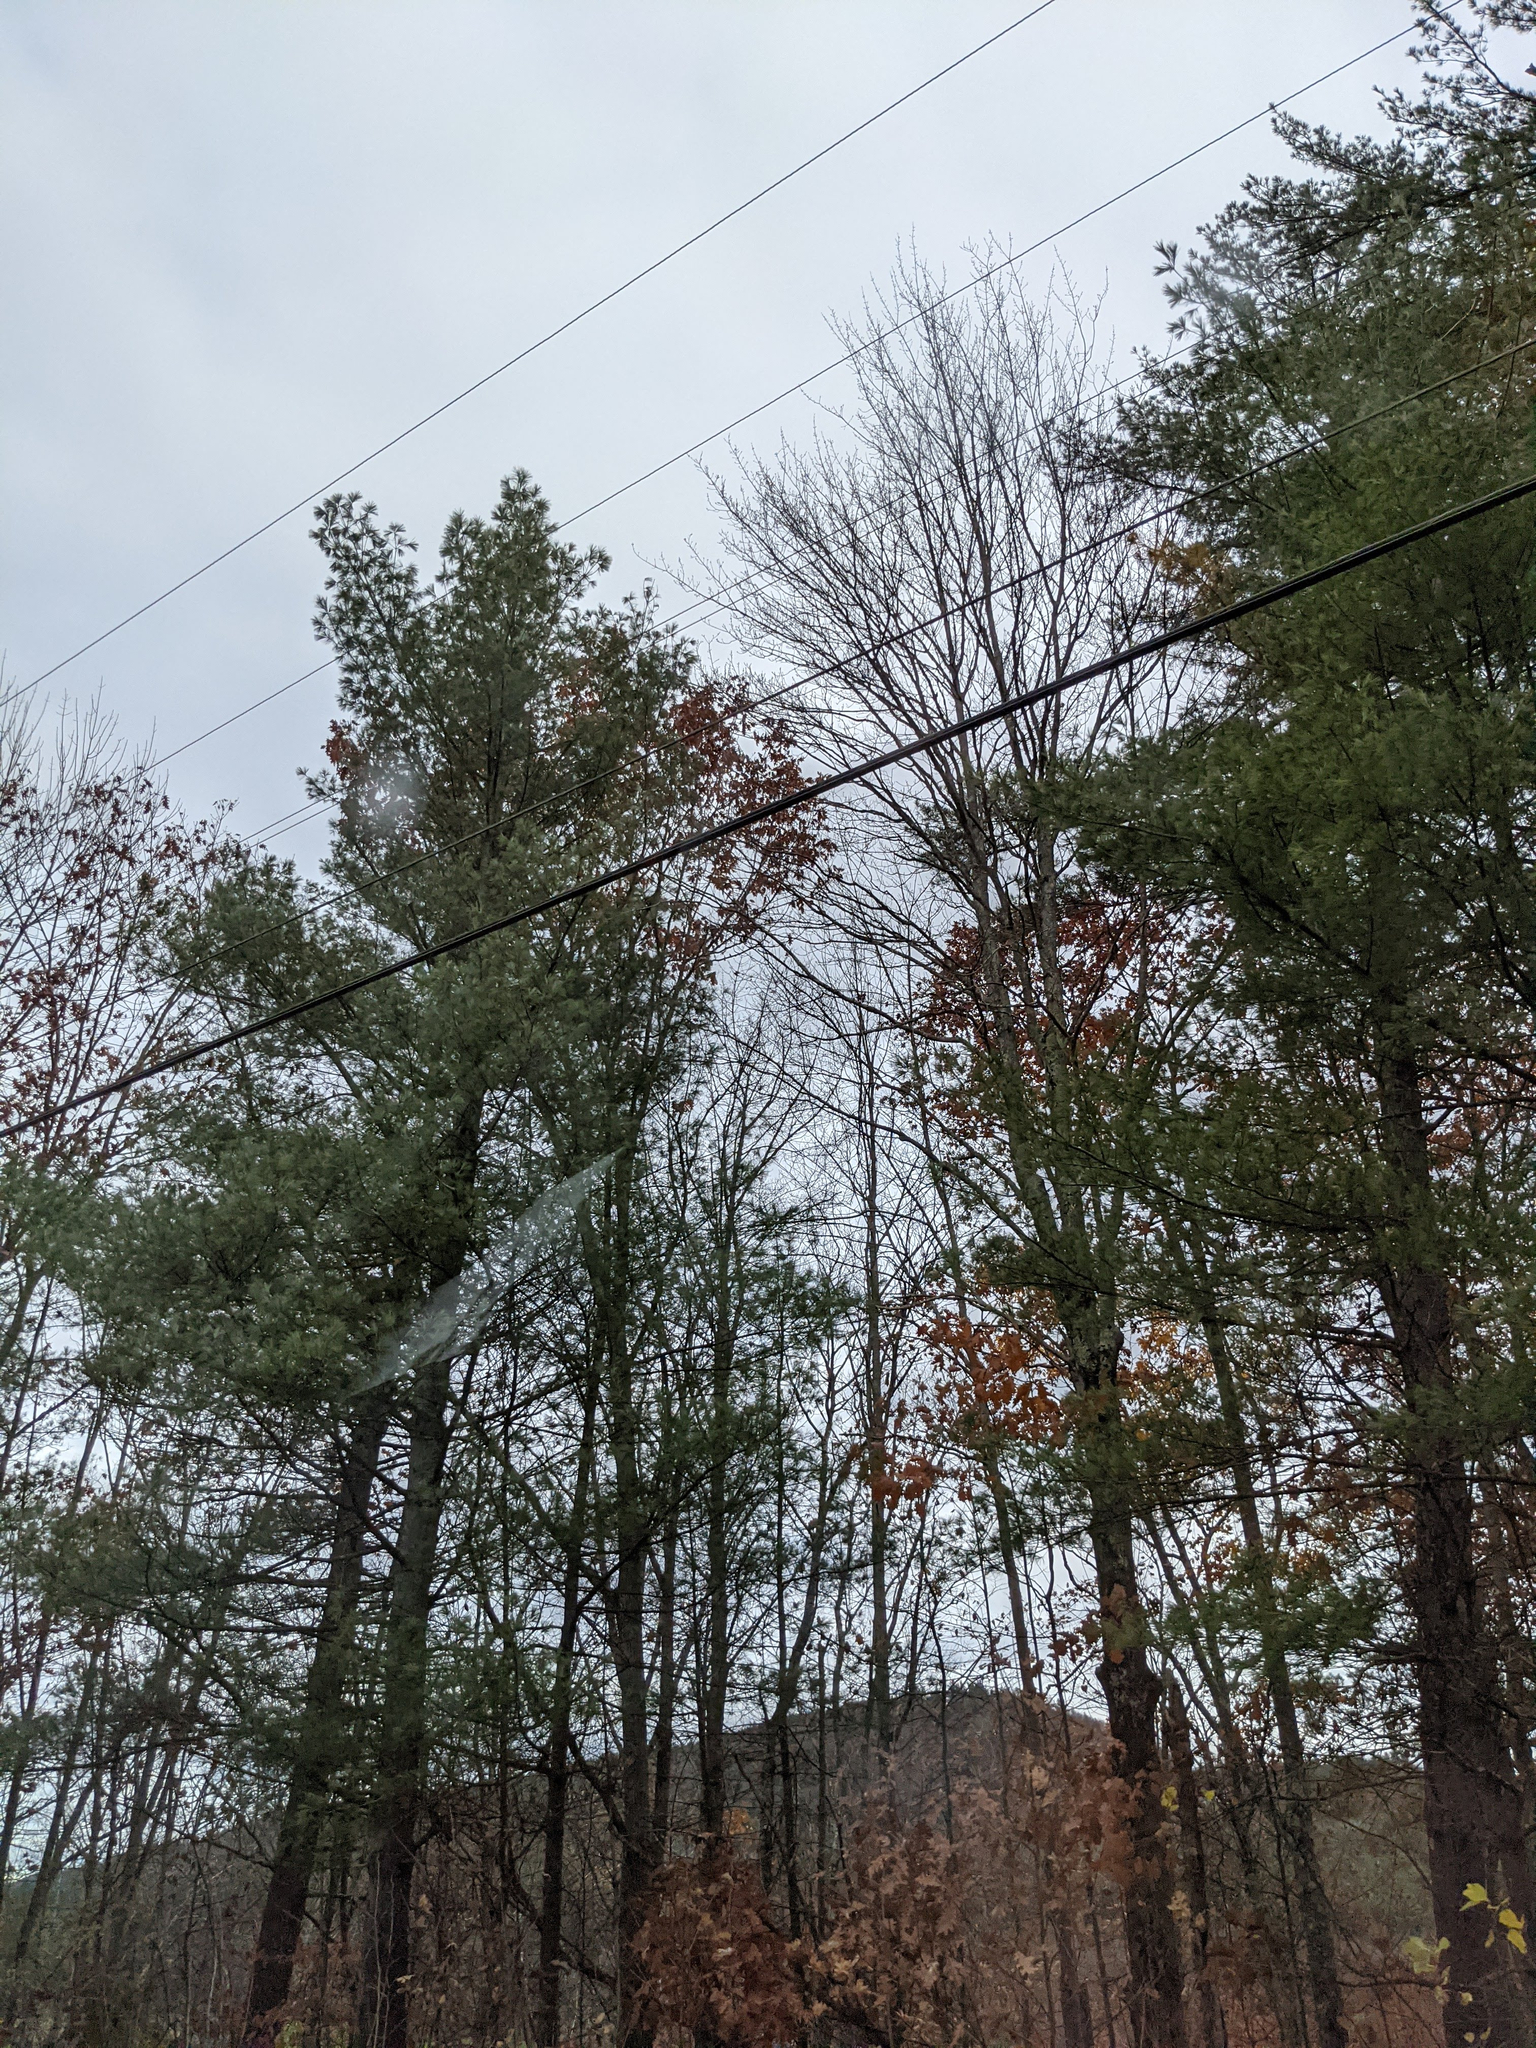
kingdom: Plantae
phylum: Tracheophyta
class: Pinopsida
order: Pinales
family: Pinaceae
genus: Pinus
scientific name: Pinus strobus
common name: Weymouth pine
